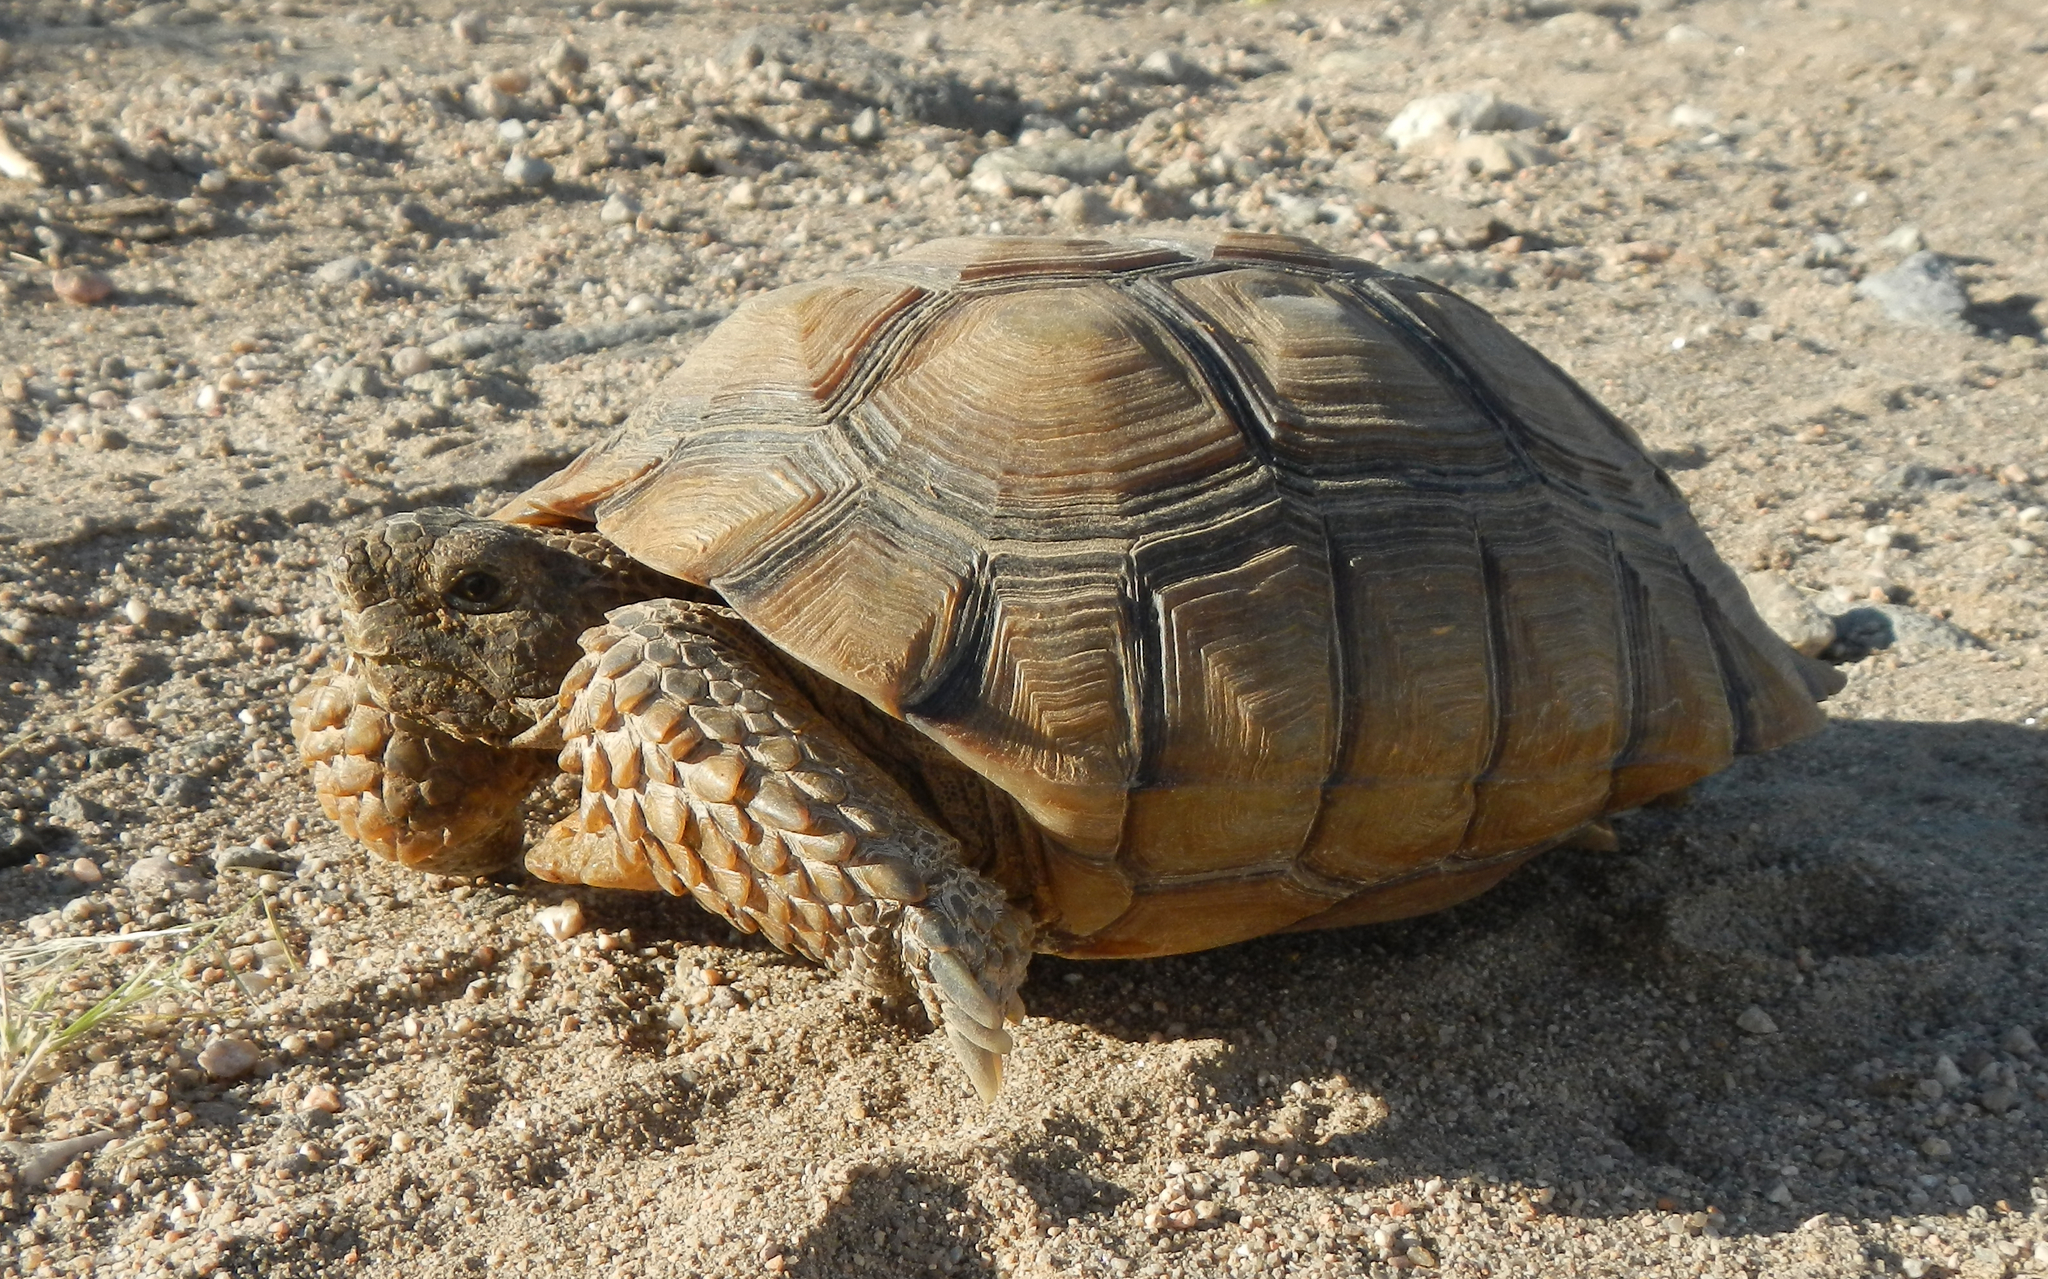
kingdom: Animalia
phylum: Chordata
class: Testudines
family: Testudinidae
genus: Gopherus
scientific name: Gopherus agassizii
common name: Mojave desert tortoise
